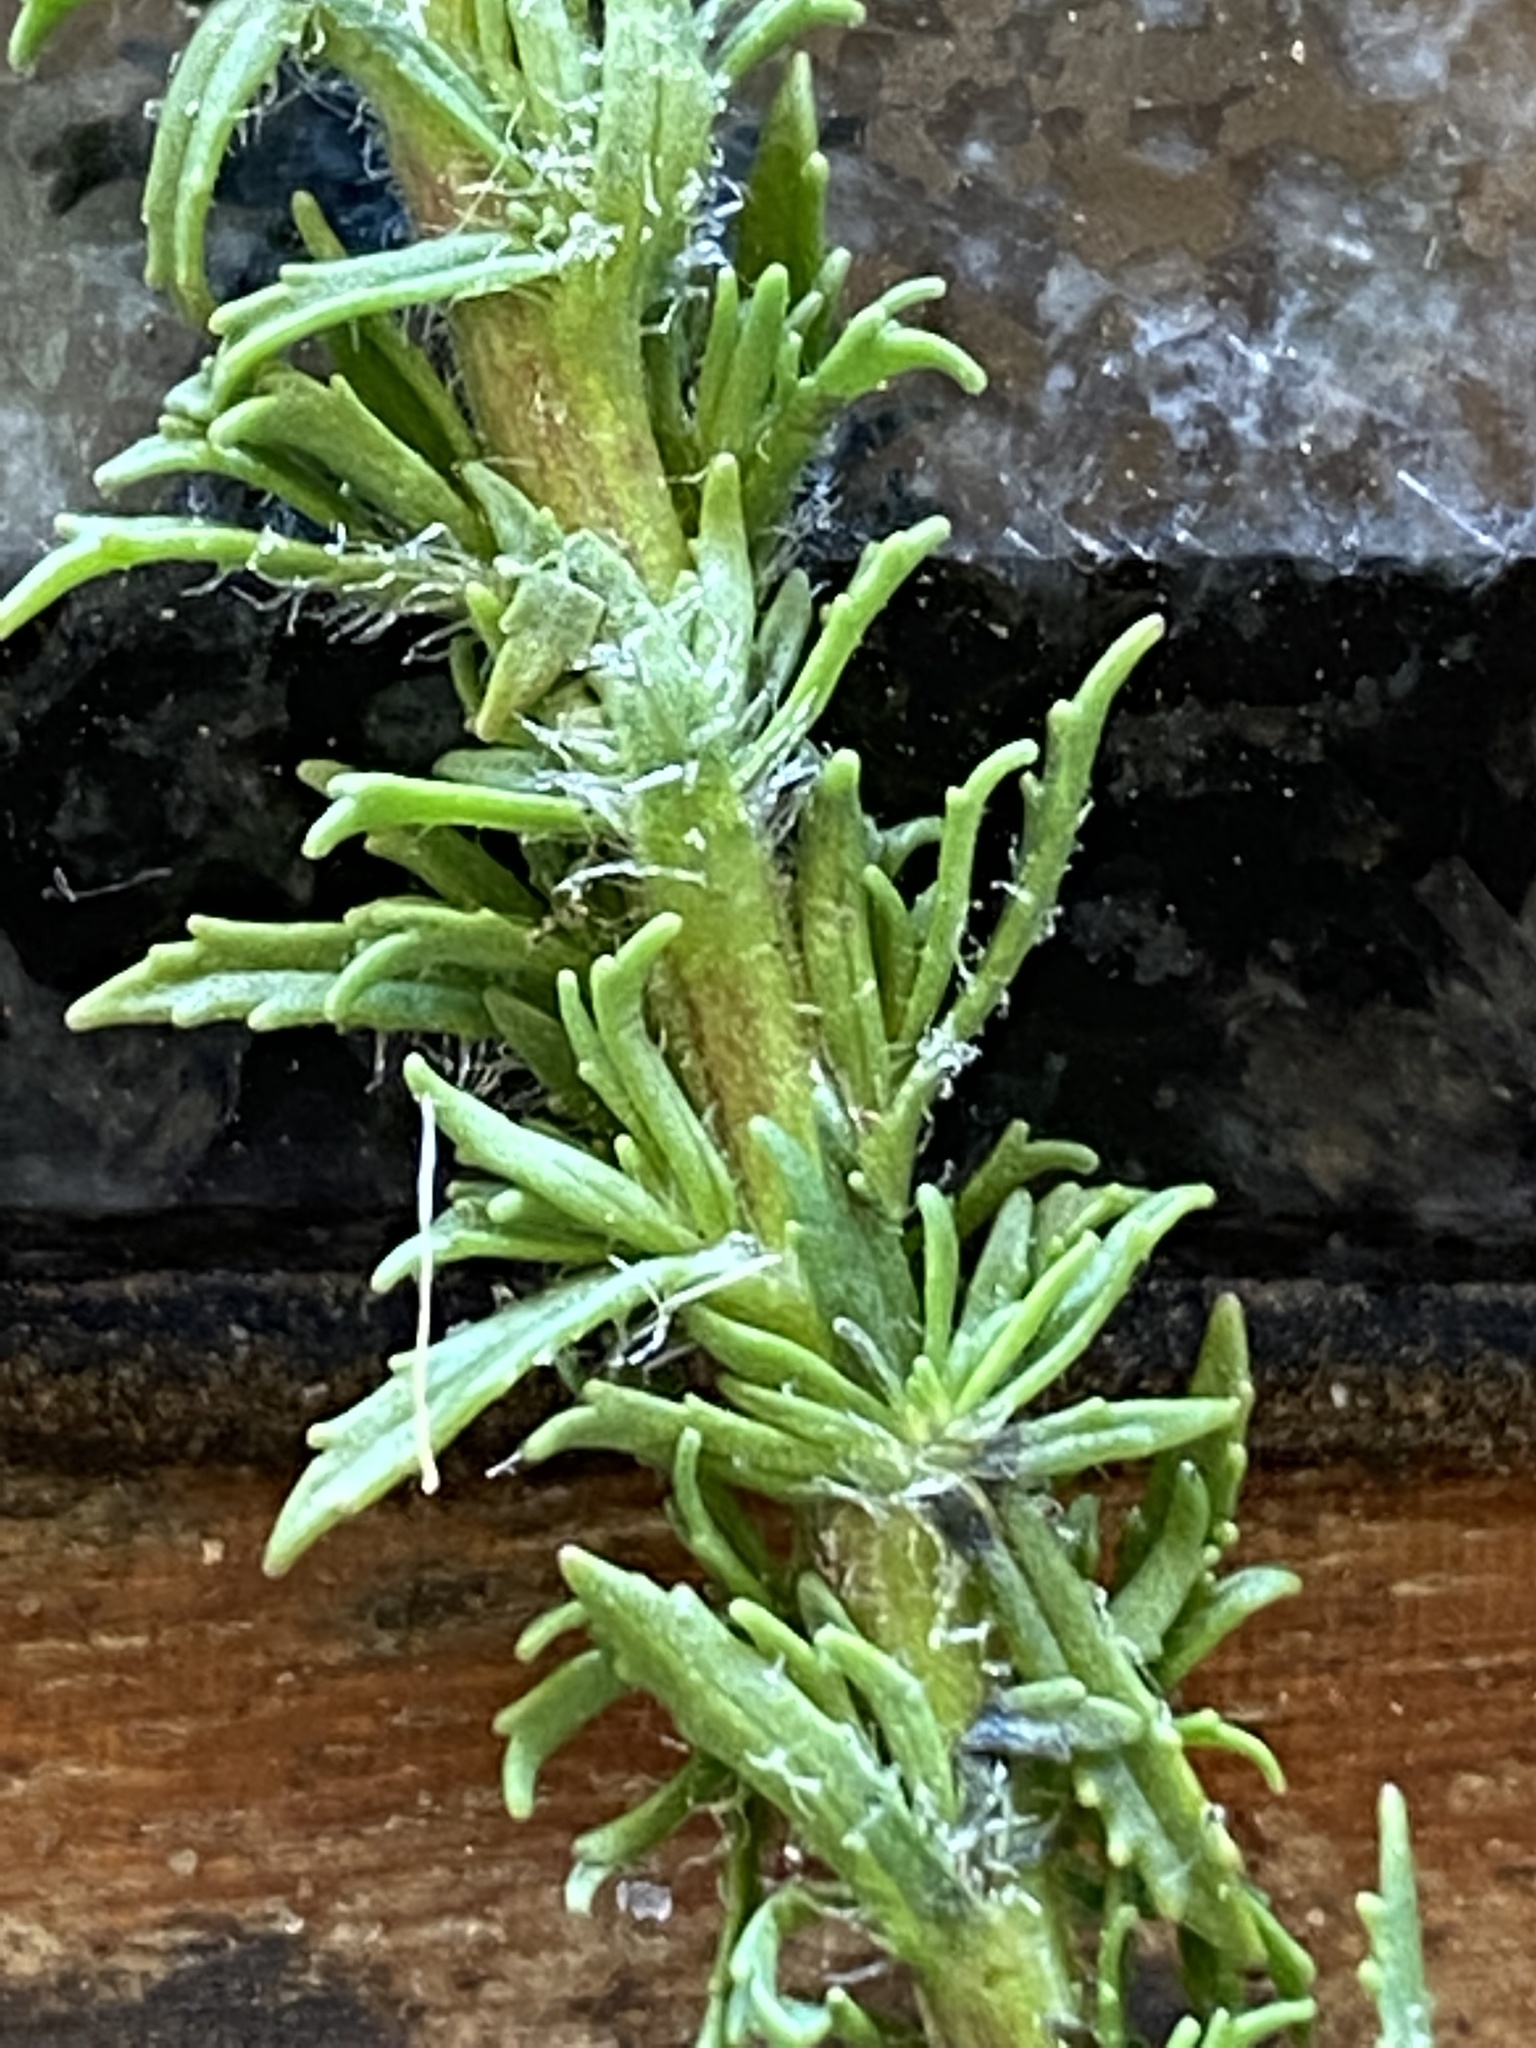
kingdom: Plantae
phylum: Tracheophyta
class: Magnoliopsida
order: Lamiales
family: Scrophulariaceae
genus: Dischisma
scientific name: Dischisma ciliatum
